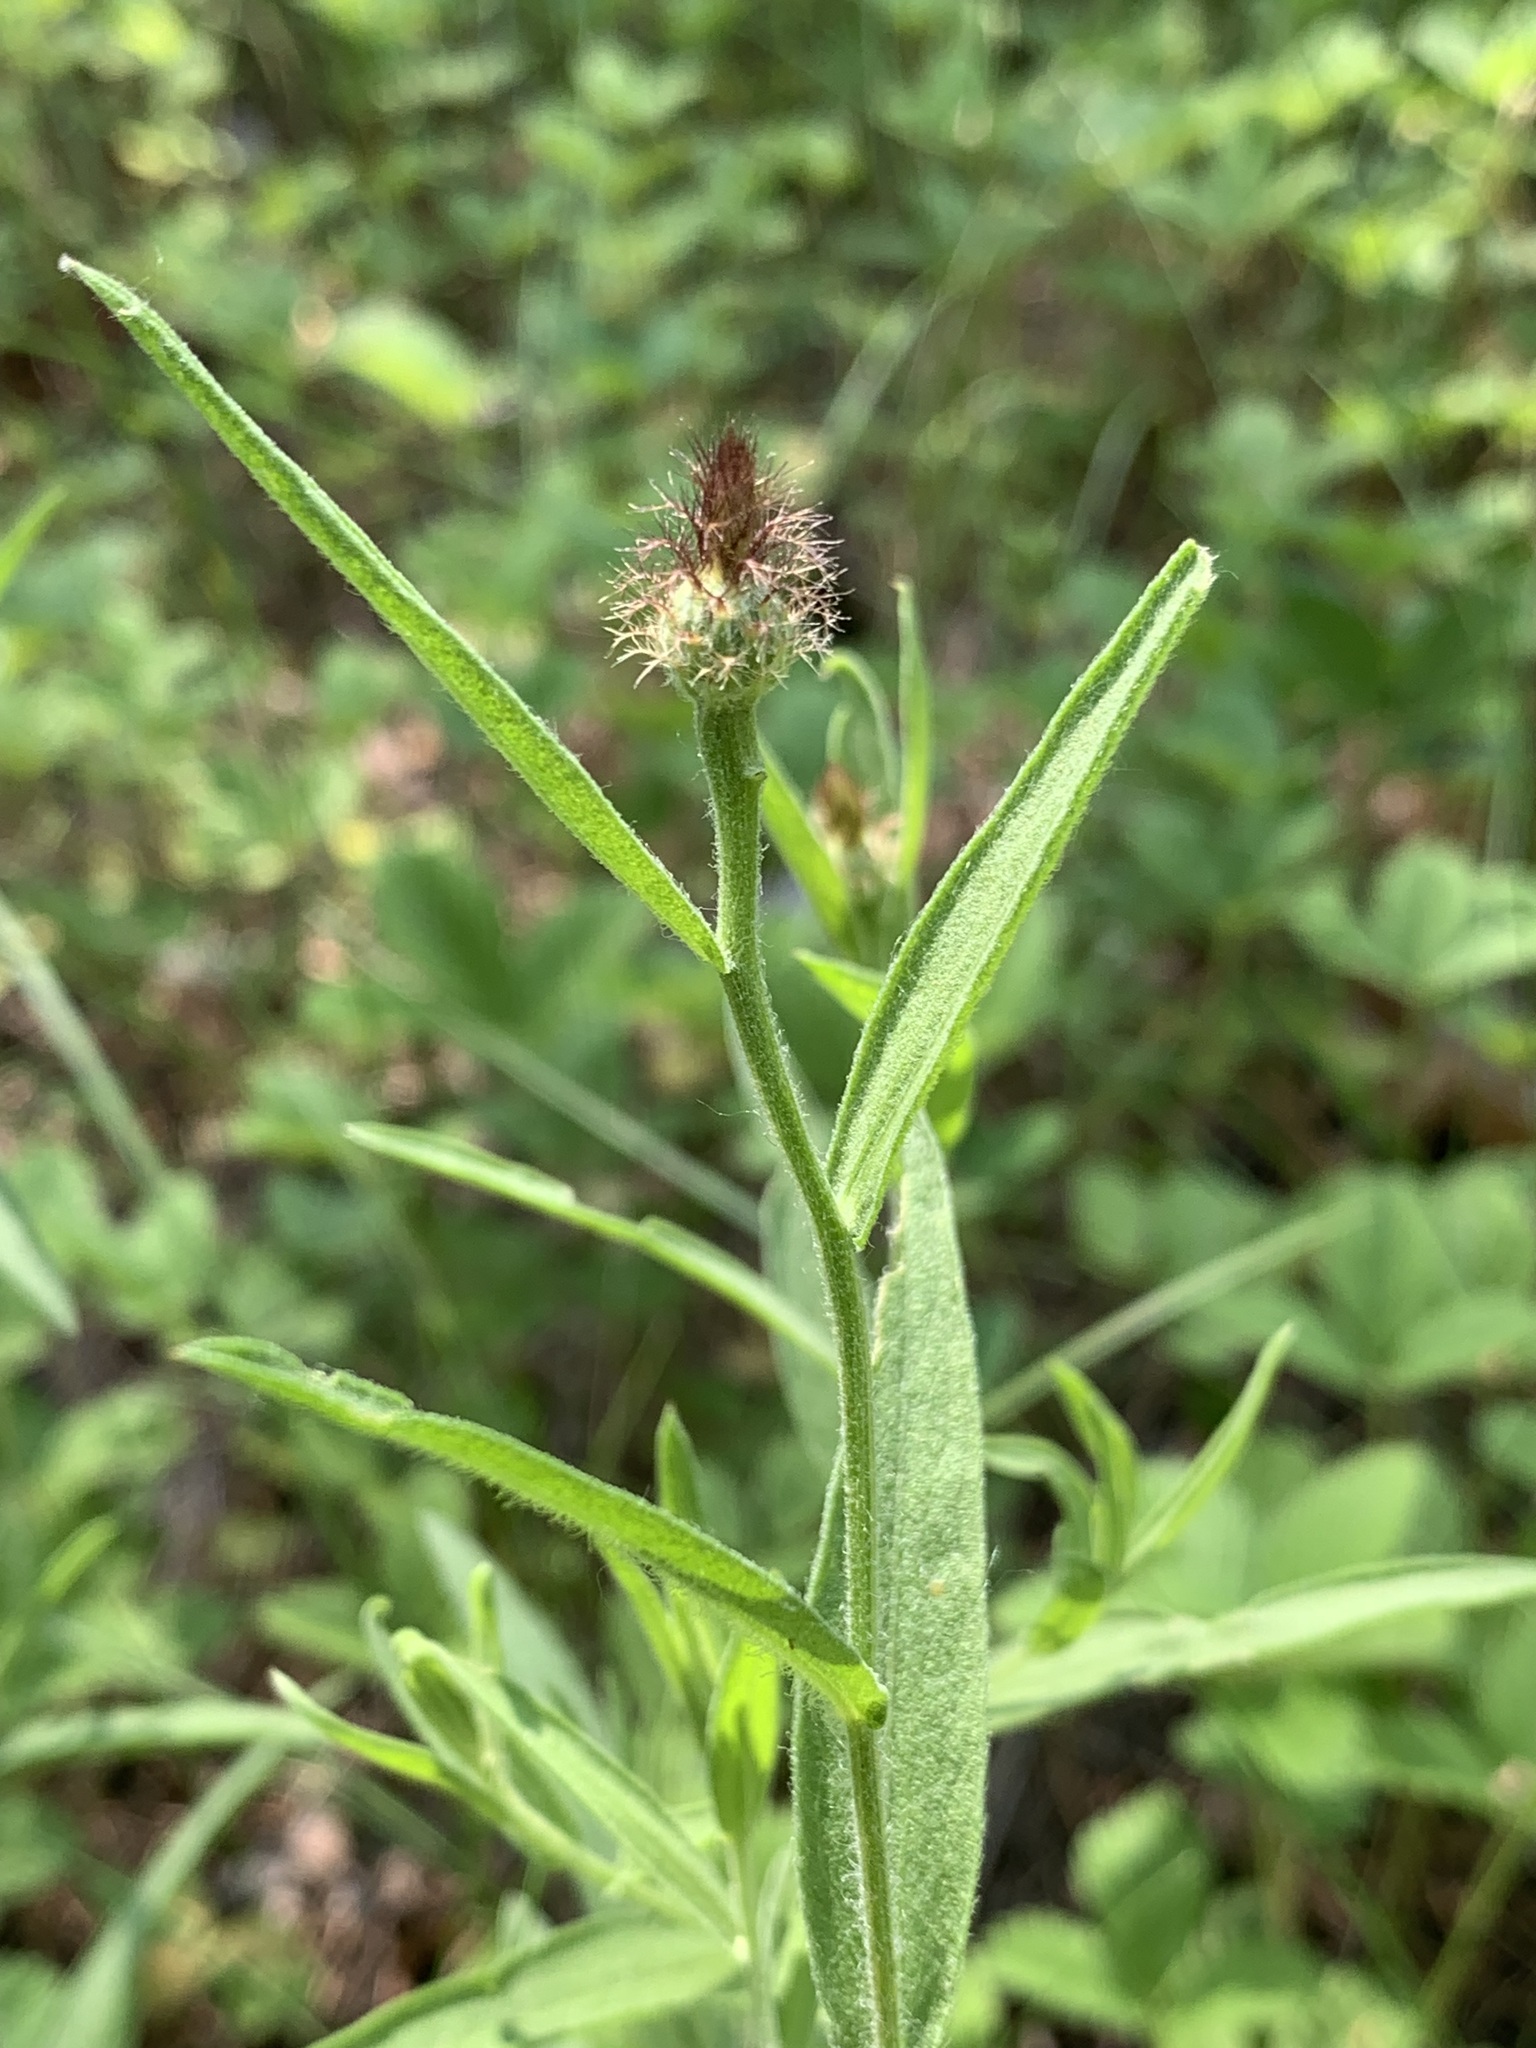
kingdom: Plantae
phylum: Tracheophyta
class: Magnoliopsida
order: Asterales
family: Asteraceae
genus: Centaurea
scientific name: Centaurea trichocephala
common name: Feather-head knapweed
